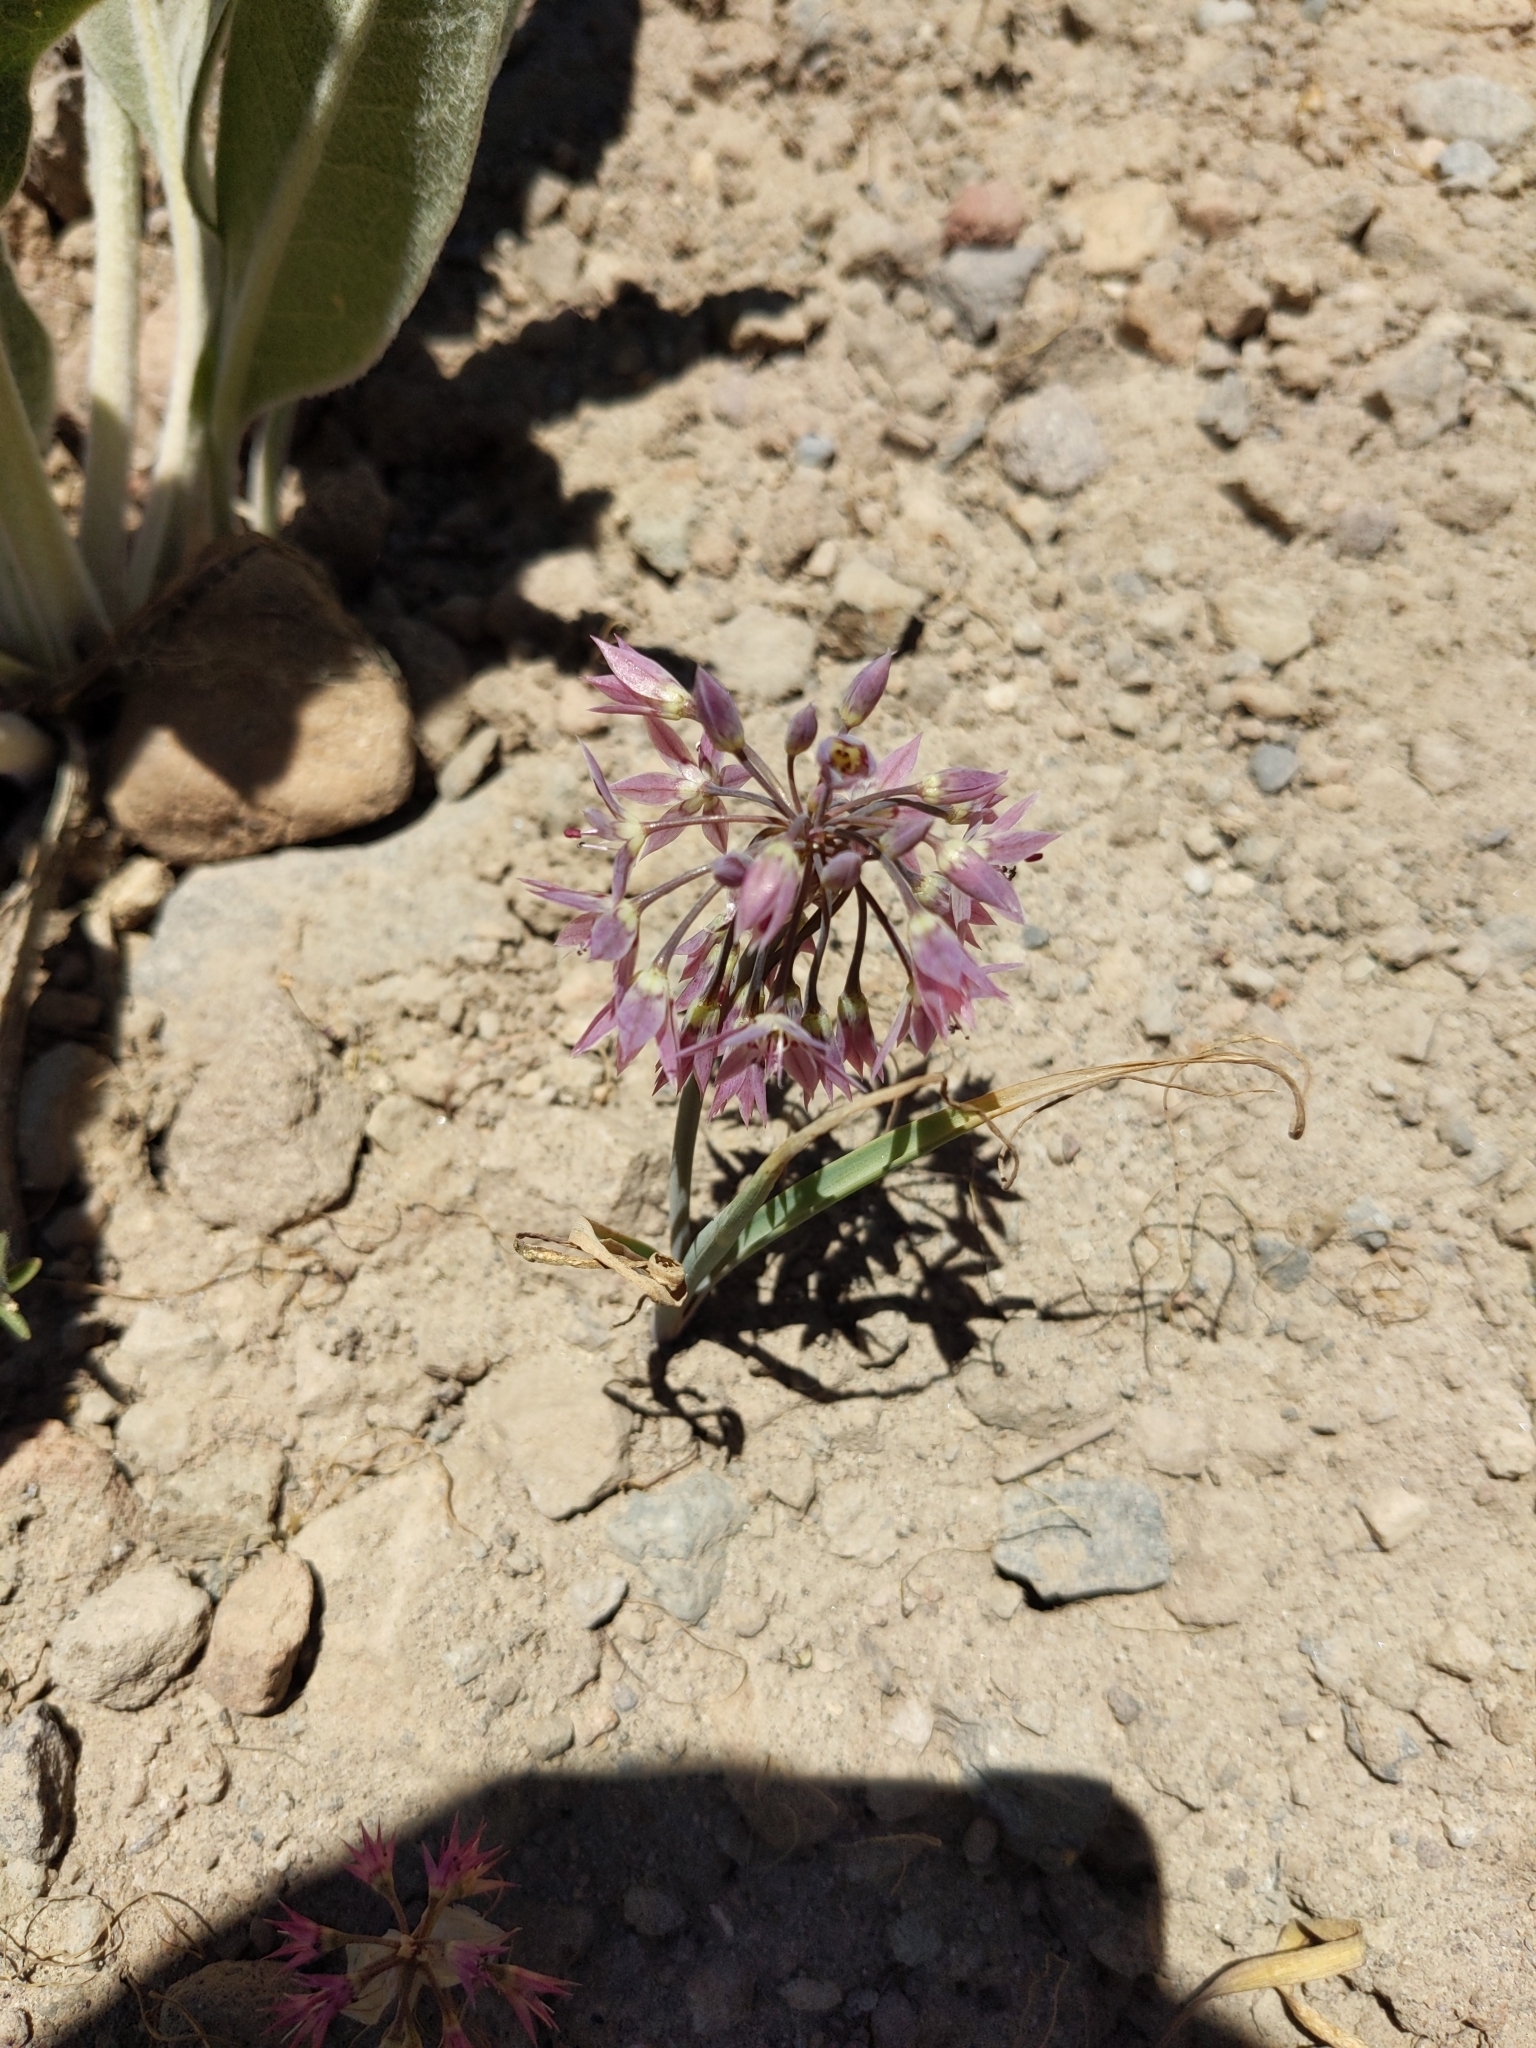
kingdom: Plantae
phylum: Tracheophyta
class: Liliopsida
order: Asparagales
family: Amaryllidaceae
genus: Allium
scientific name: Allium campanulatum
